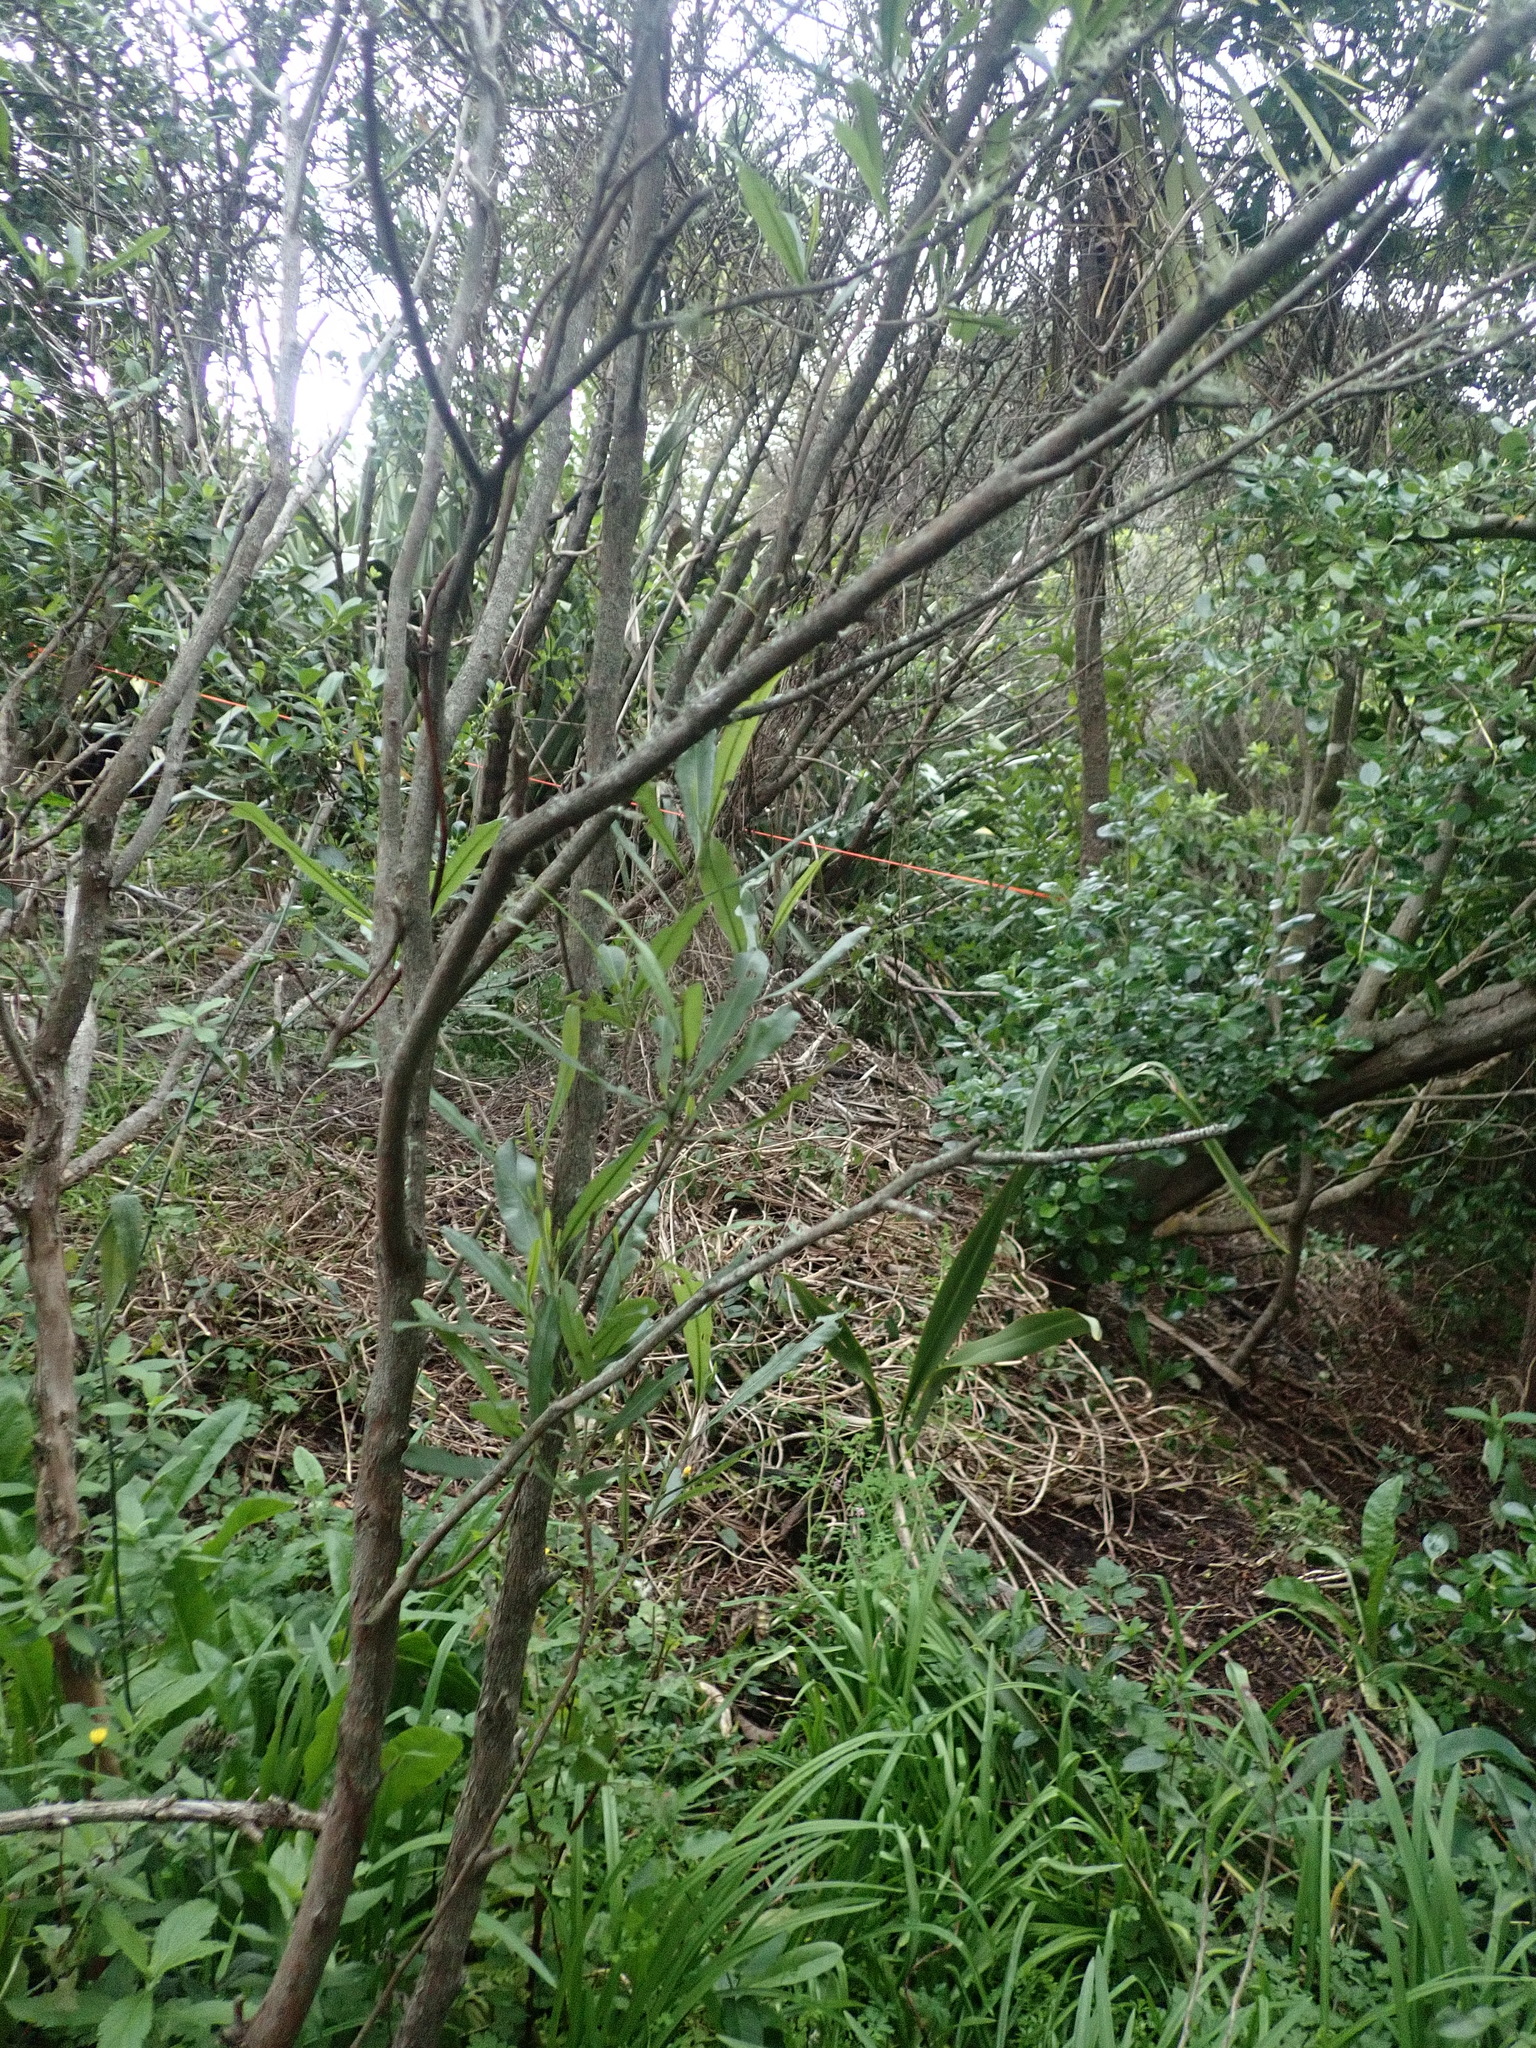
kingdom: Plantae
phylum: Tracheophyta
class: Magnoliopsida
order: Sapindales
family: Sapindaceae
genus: Dodonaea
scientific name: Dodonaea viscosa
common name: Hopbush
